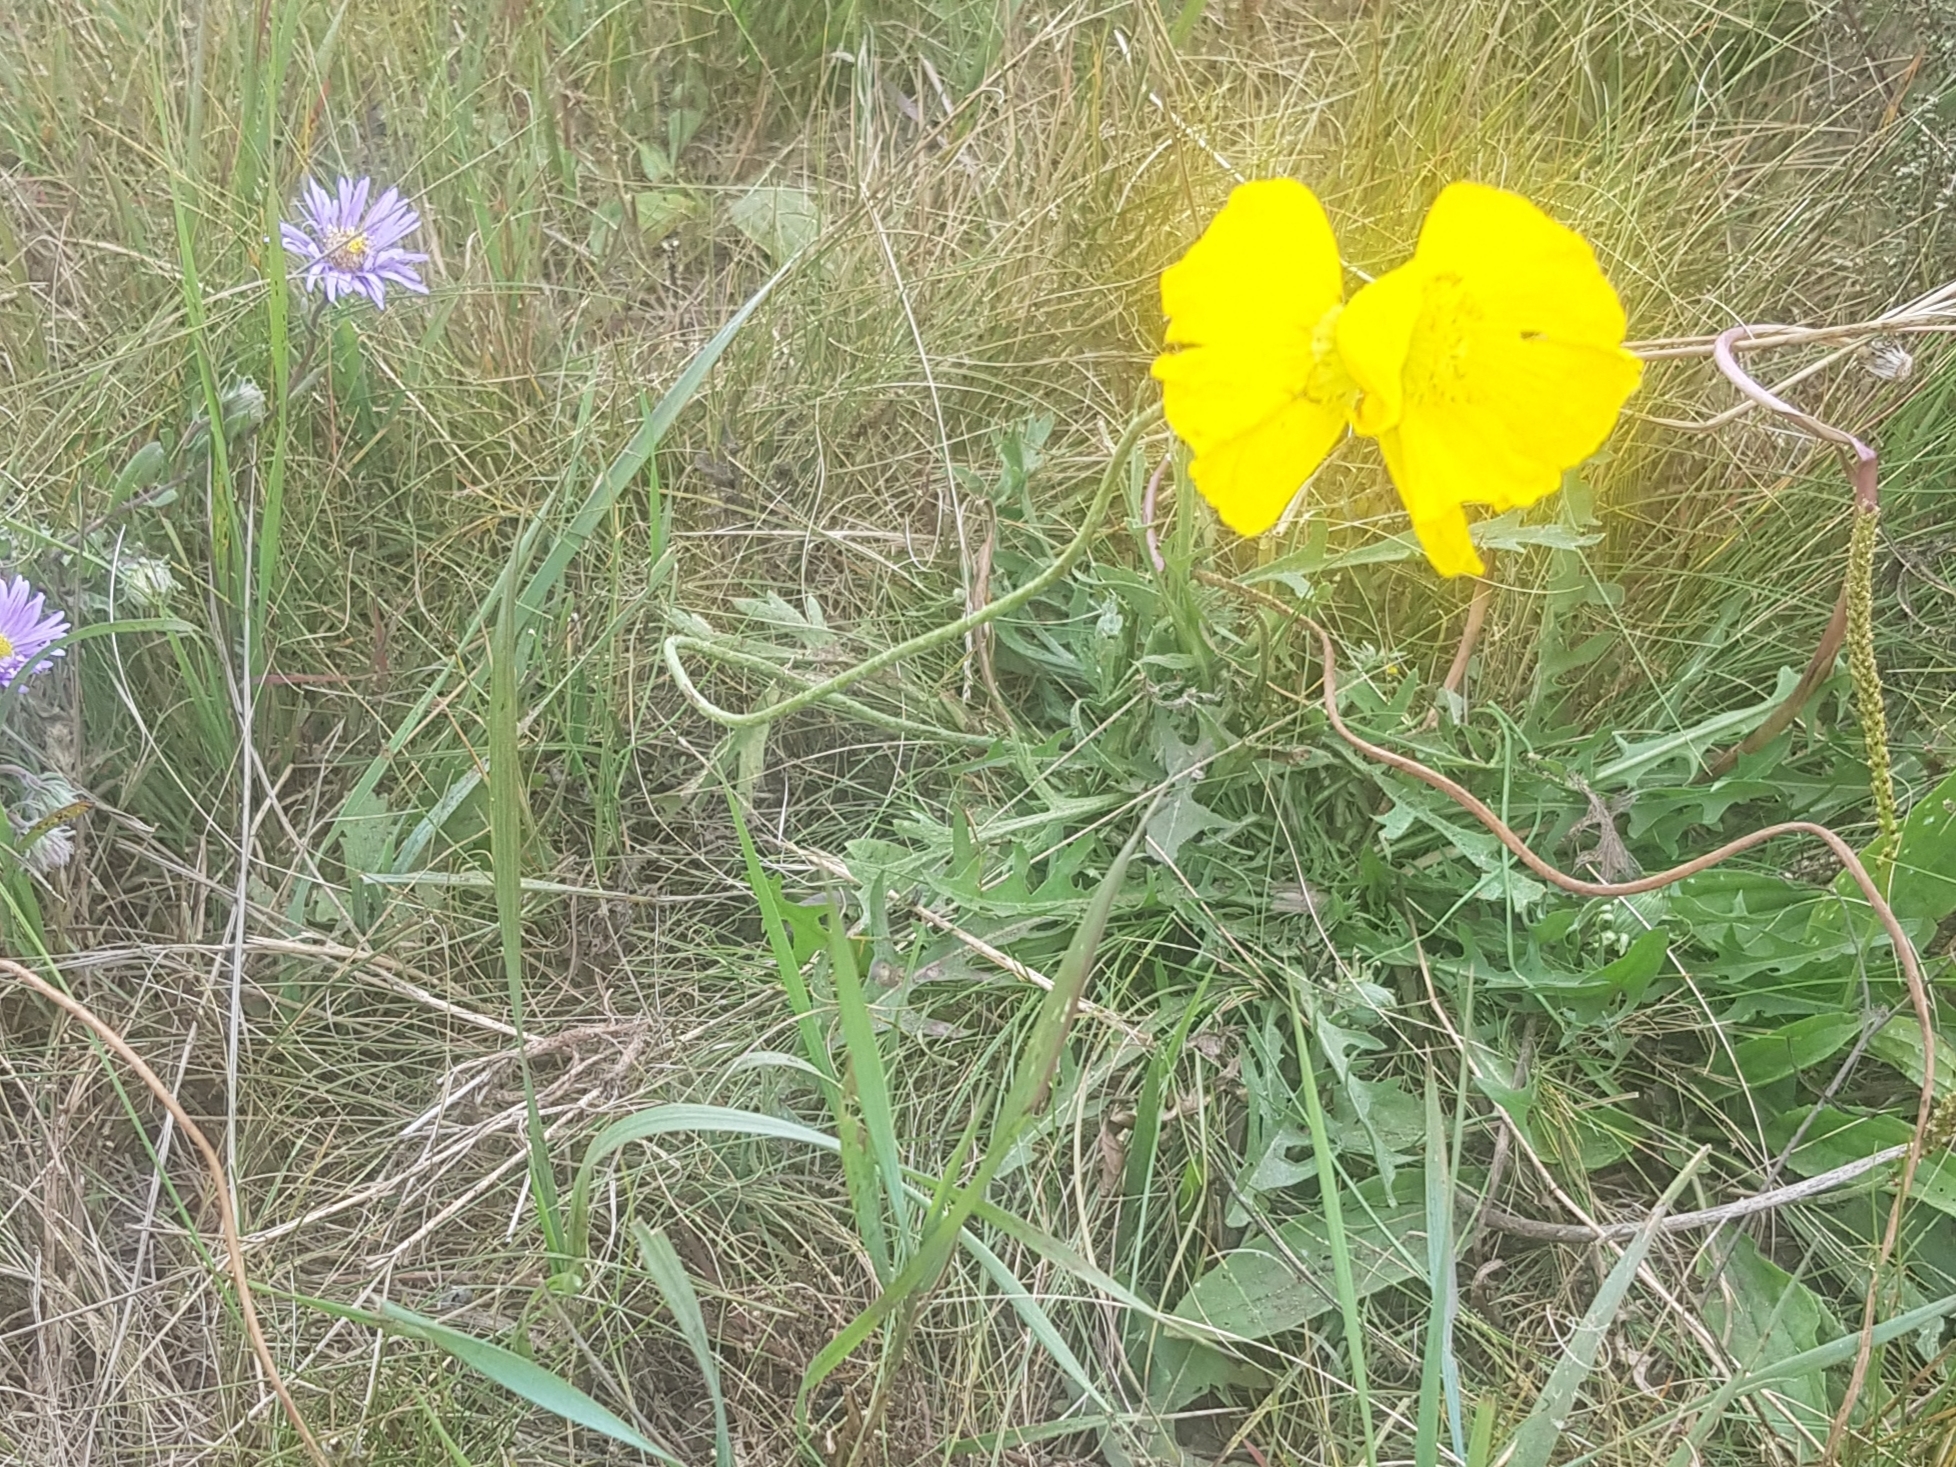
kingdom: Plantae
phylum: Tracheophyta
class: Magnoliopsida
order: Ranunculales
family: Papaveraceae
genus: Papaver
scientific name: Papaver nudicaule
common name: Arctic poppy
